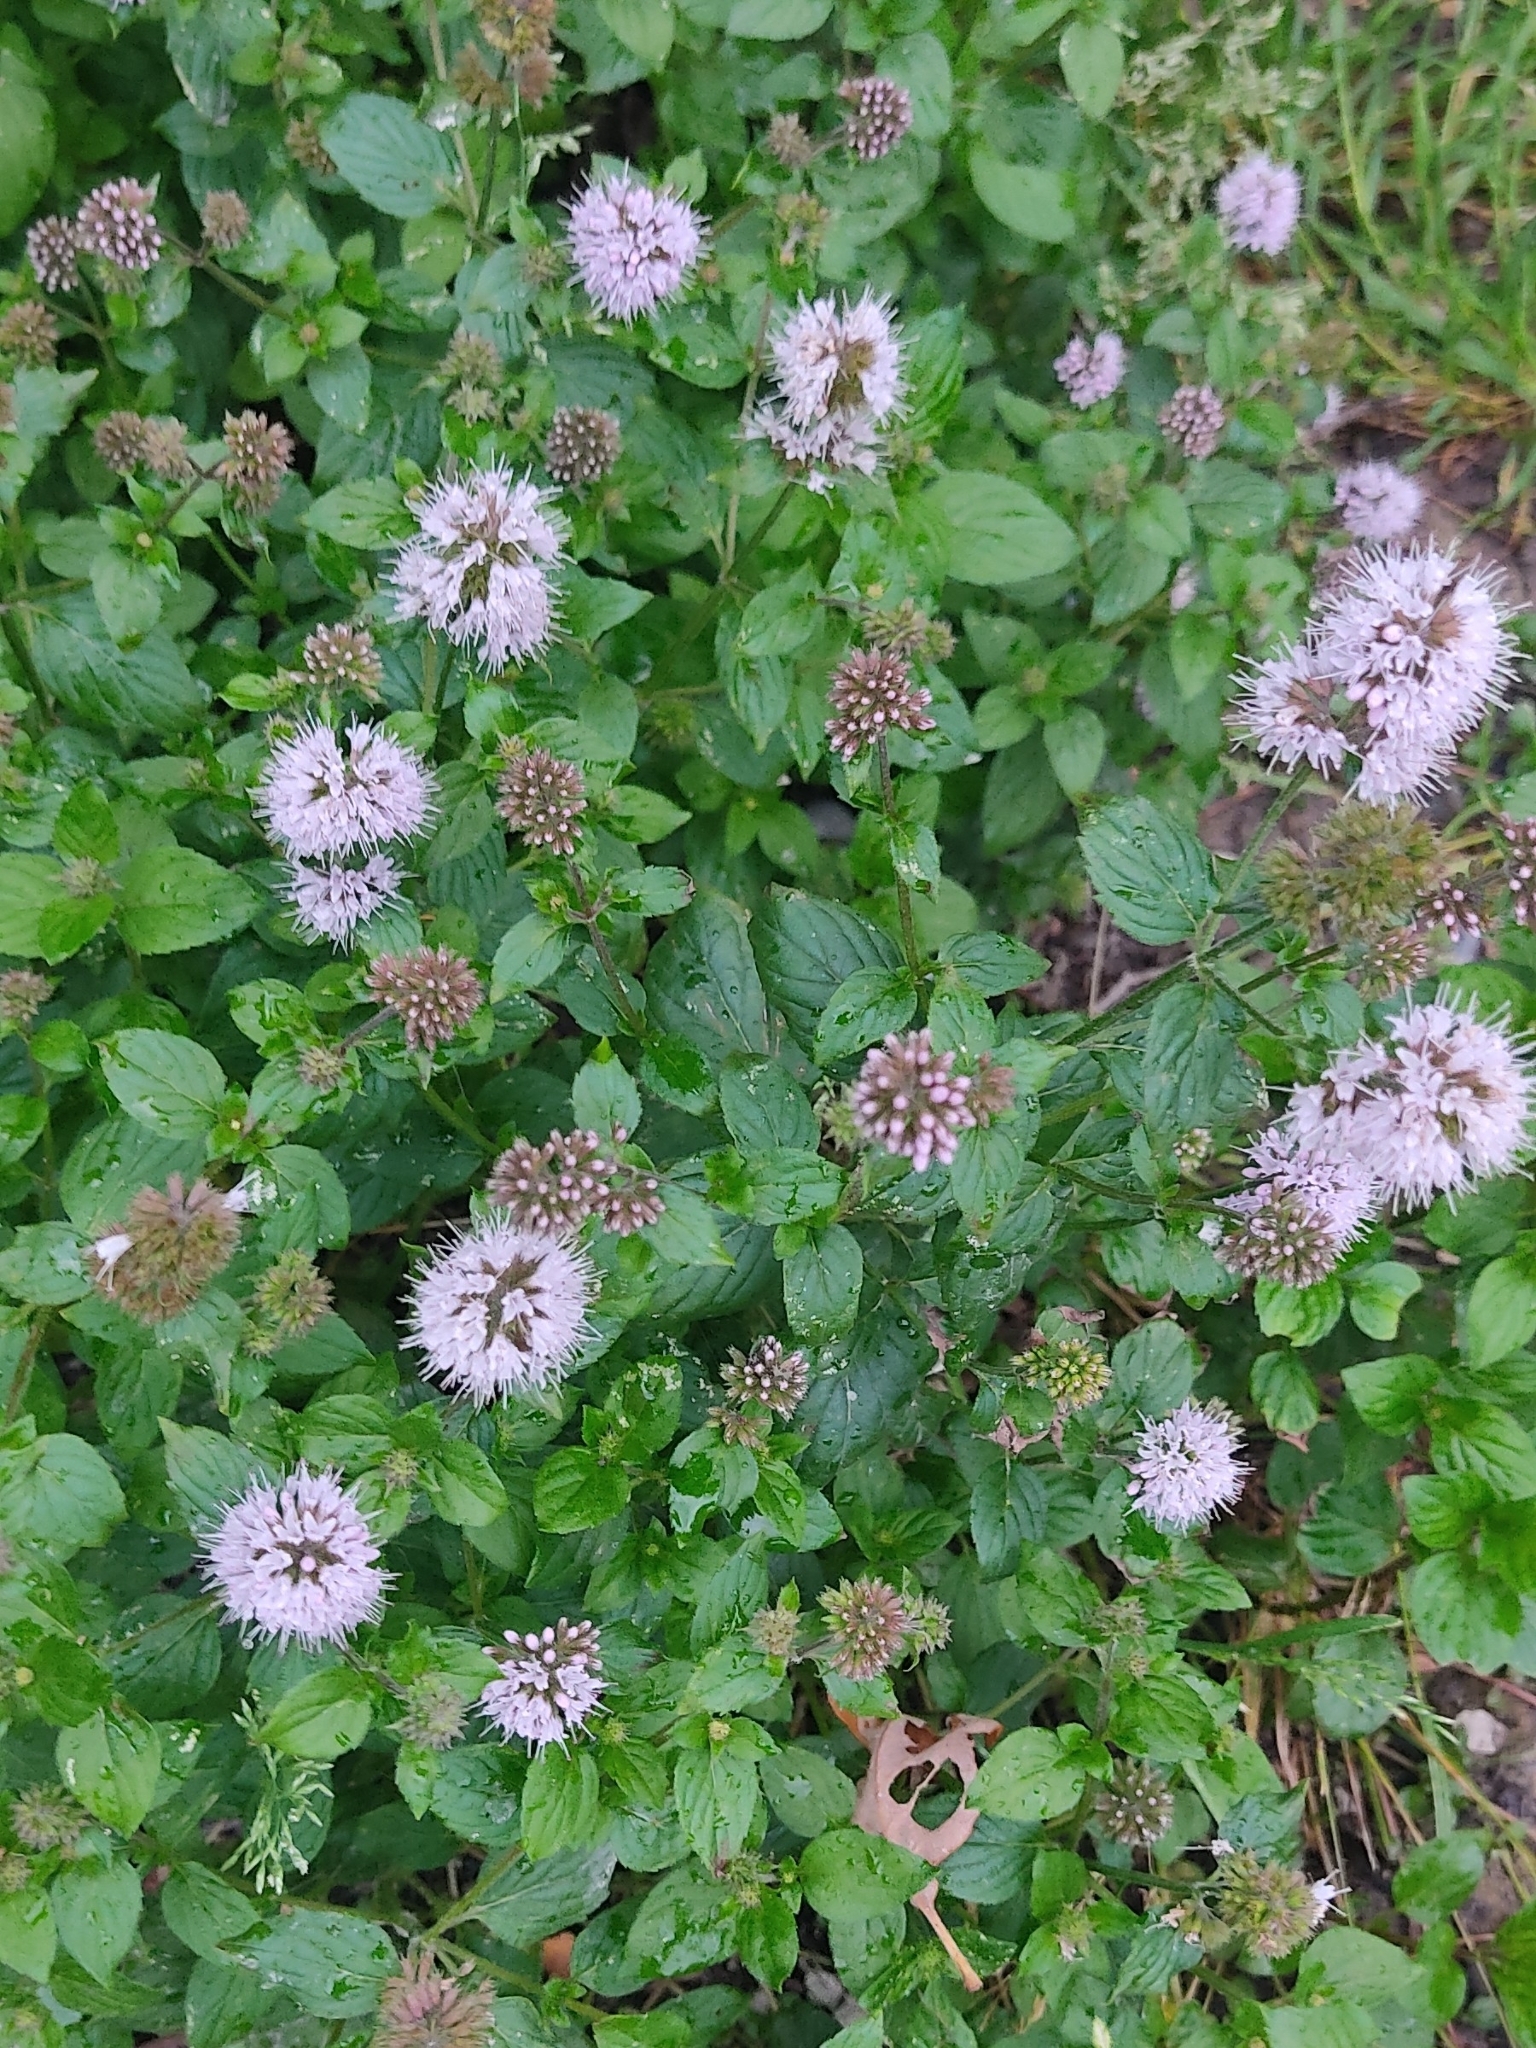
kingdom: Plantae
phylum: Tracheophyta
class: Magnoliopsida
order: Lamiales
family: Lamiaceae
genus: Mentha
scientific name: Mentha aquatica
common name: Water mint
